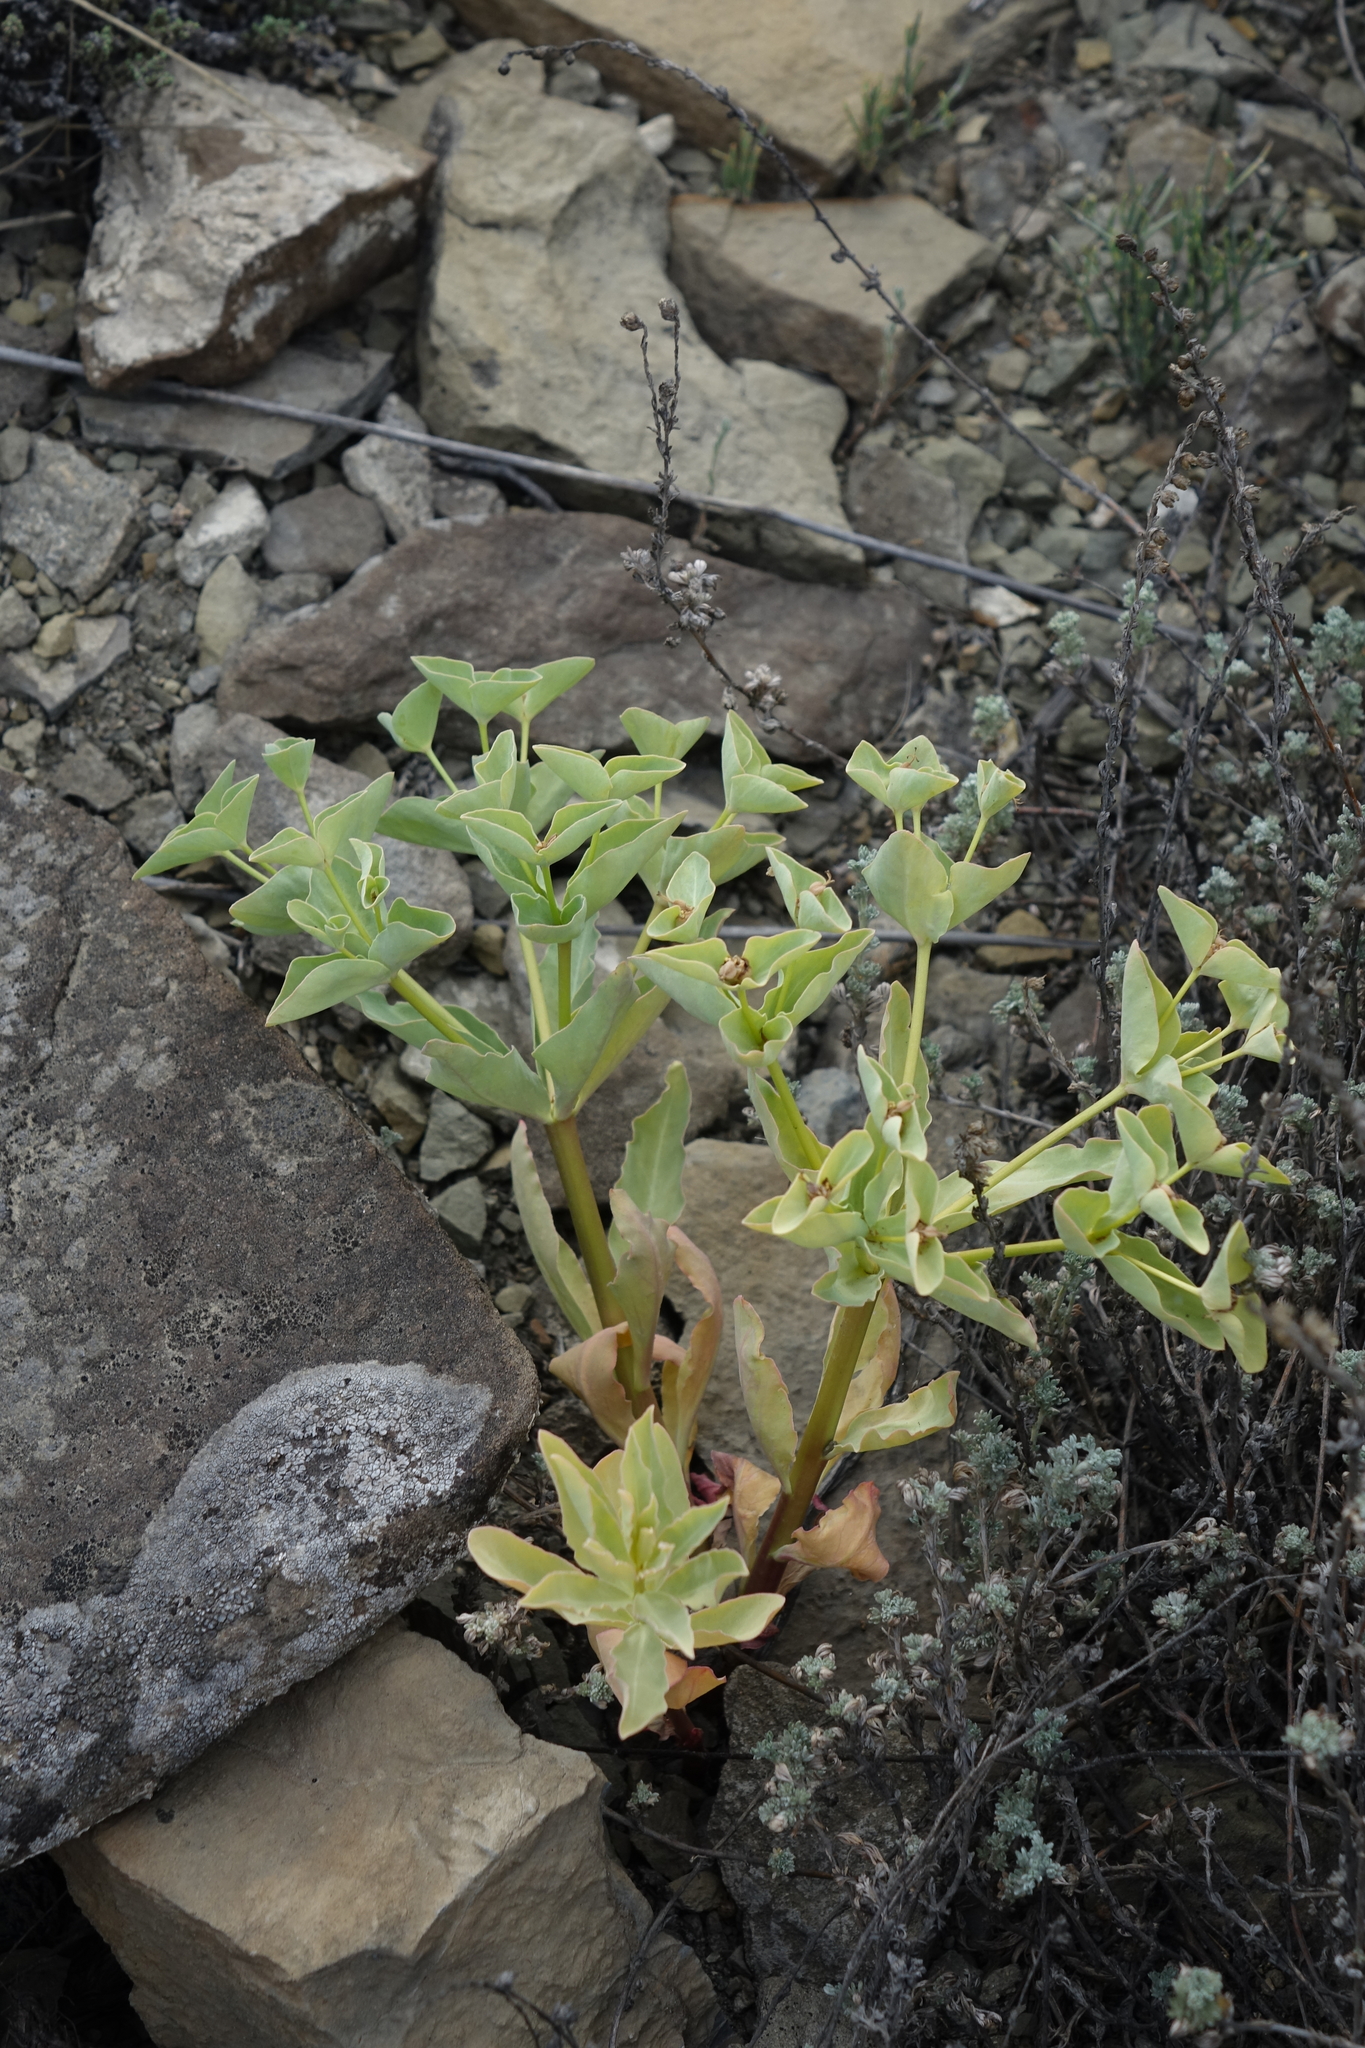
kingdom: Plantae
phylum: Tracheophyta
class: Magnoliopsida
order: Malpighiales
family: Euphorbiaceae
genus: Euphorbia
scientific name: Euphorbia mongolica
